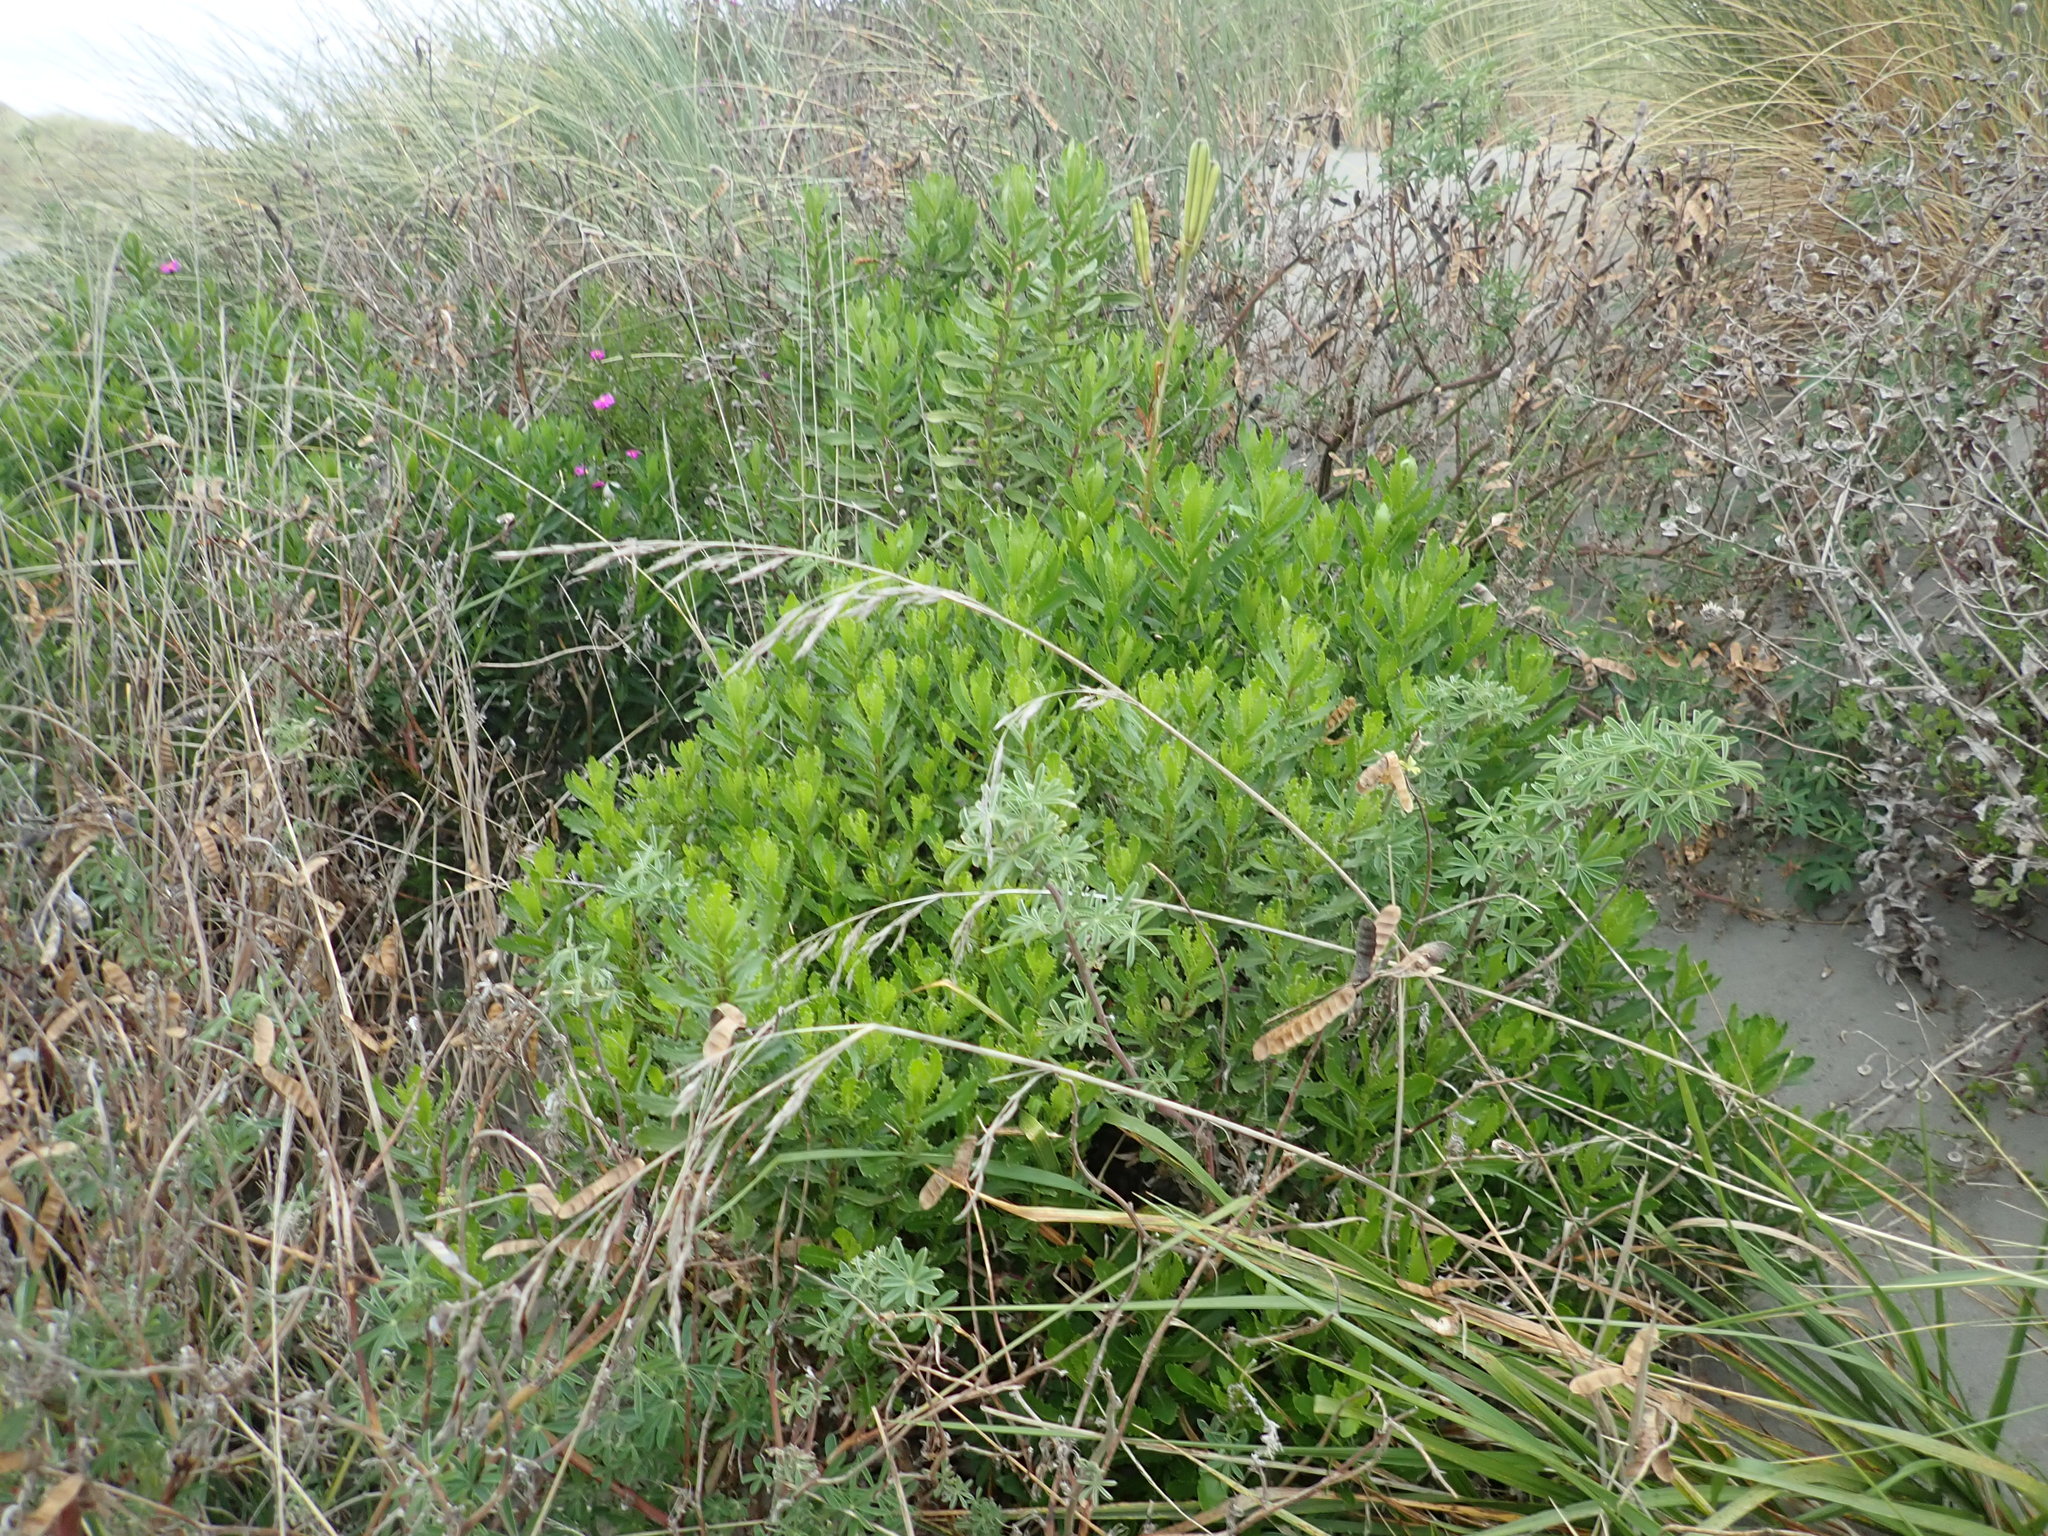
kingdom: Plantae
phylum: Tracheophyta
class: Magnoliopsida
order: Asterales
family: Asteraceae
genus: Senecio
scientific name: Senecio glastifolius
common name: Woad-leaved ragwort
